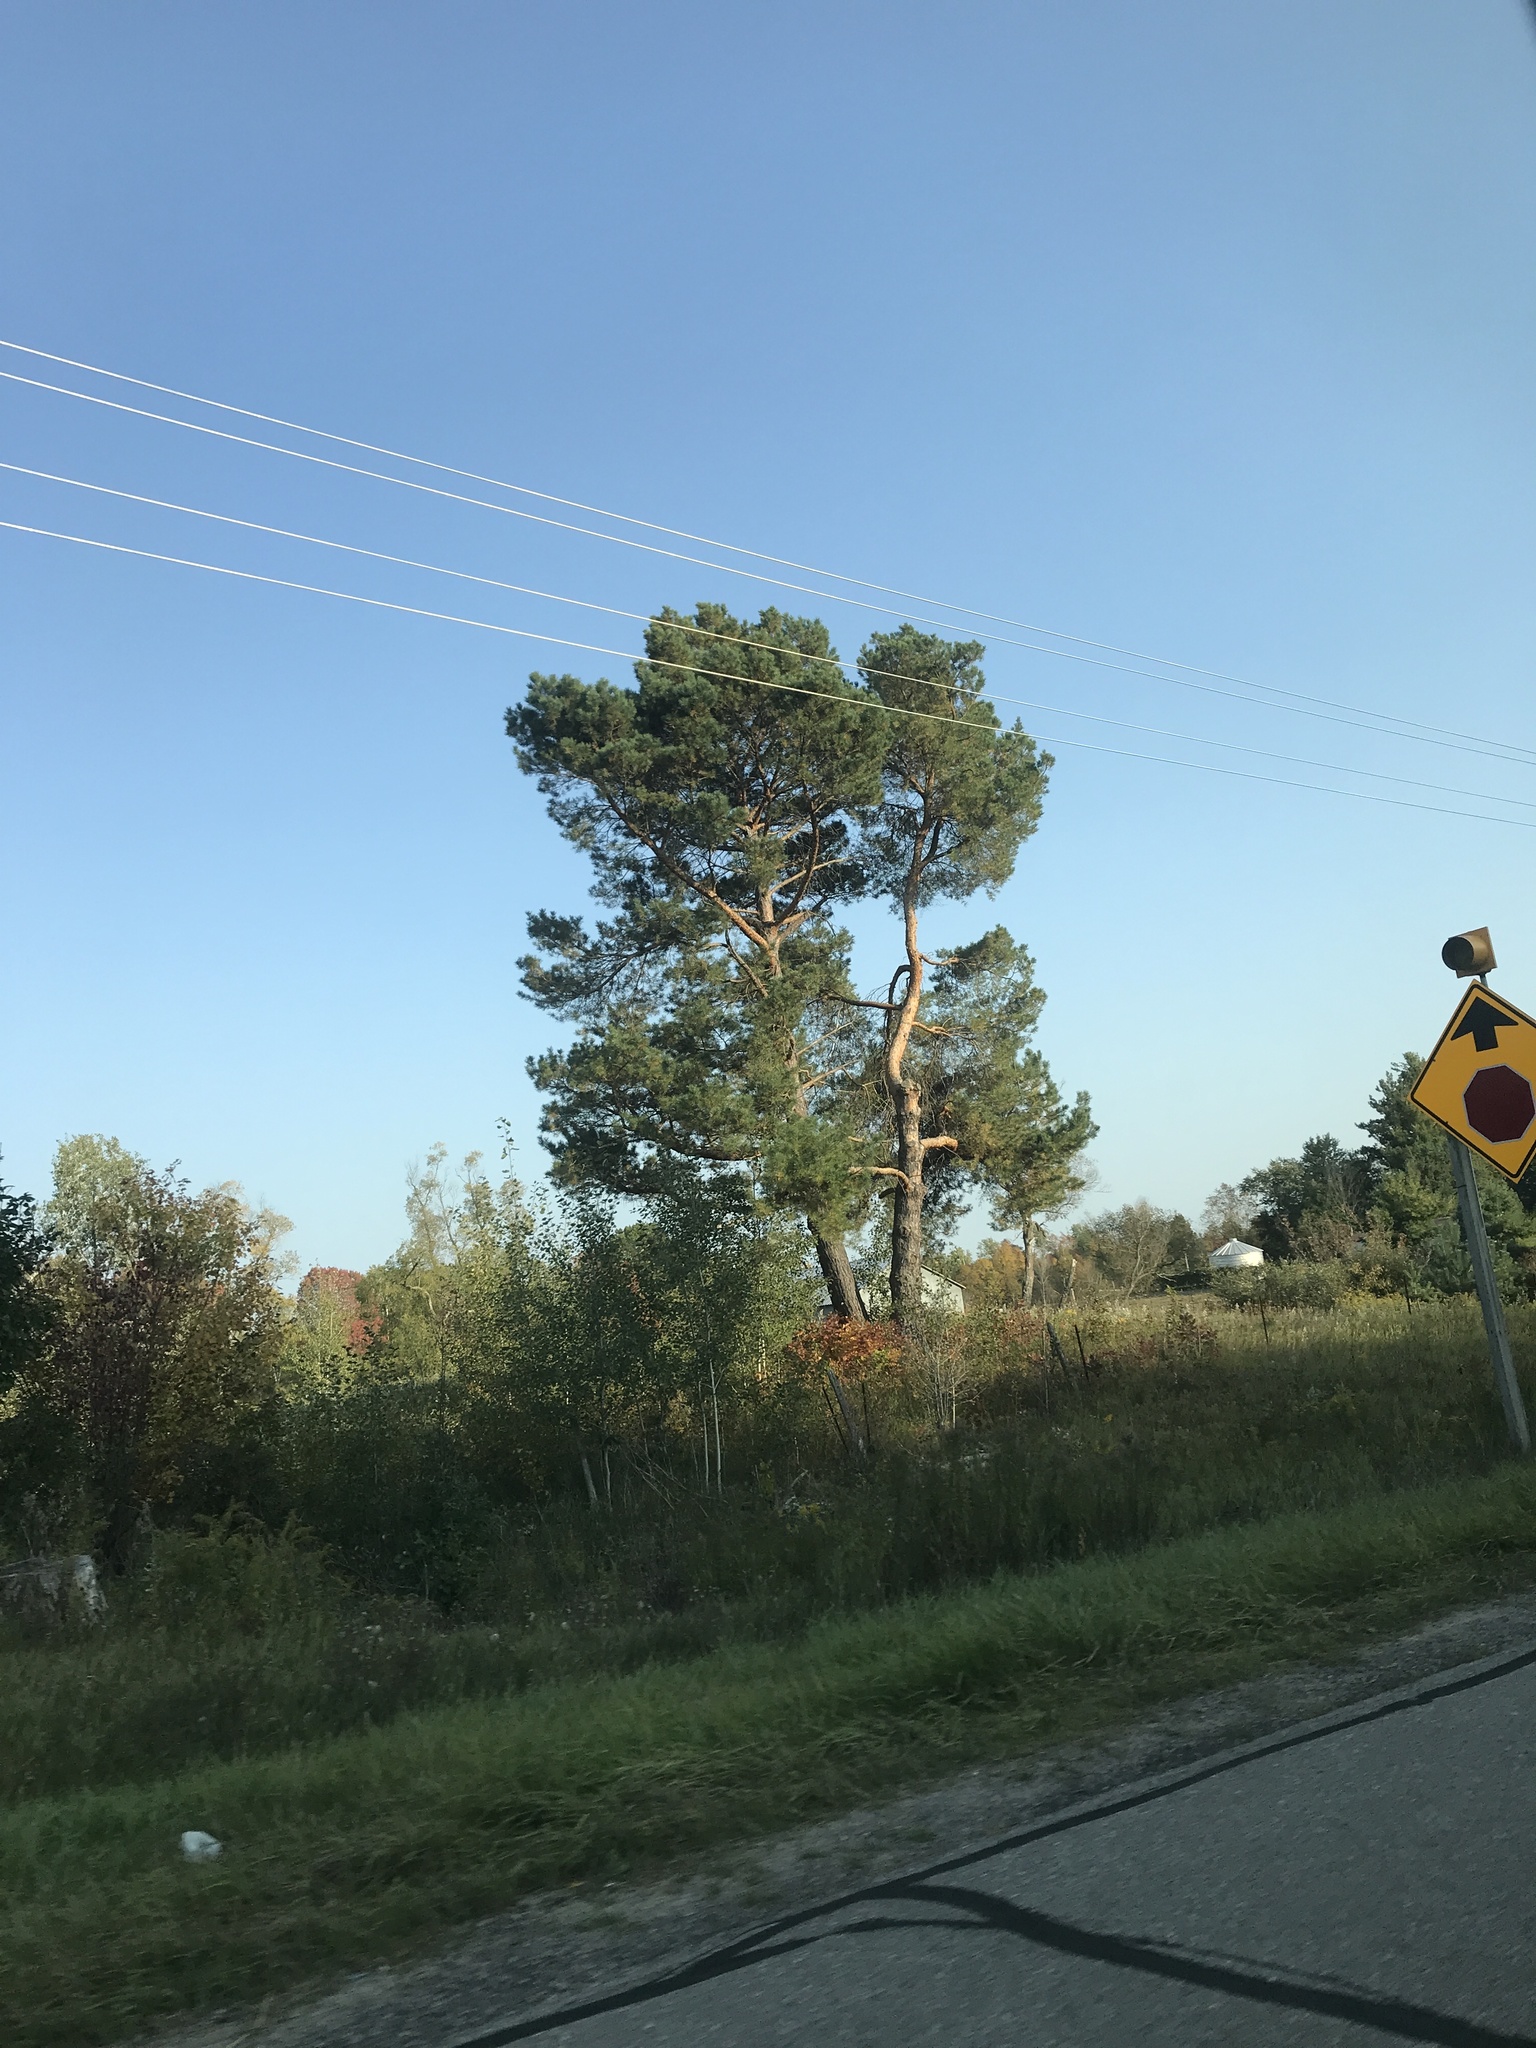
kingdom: Plantae
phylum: Tracheophyta
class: Pinopsida
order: Pinales
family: Pinaceae
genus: Pinus
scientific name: Pinus sylvestris
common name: Scots pine
